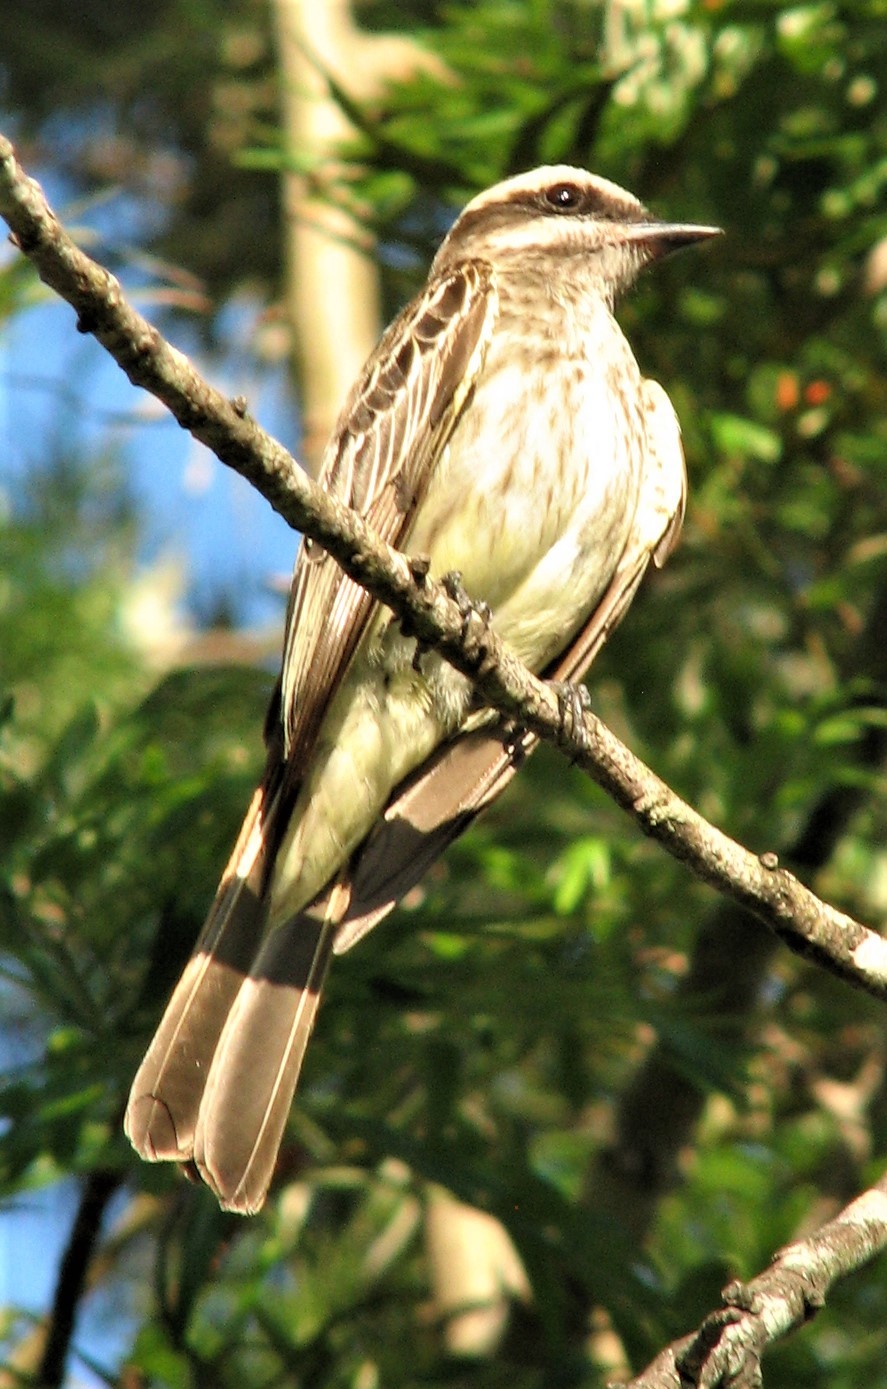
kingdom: Animalia
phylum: Chordata
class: Aves
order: Passeriformes
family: Tyrannidae
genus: Empidonomus
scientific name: Empidonomus varius
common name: Variegated flycatcher
